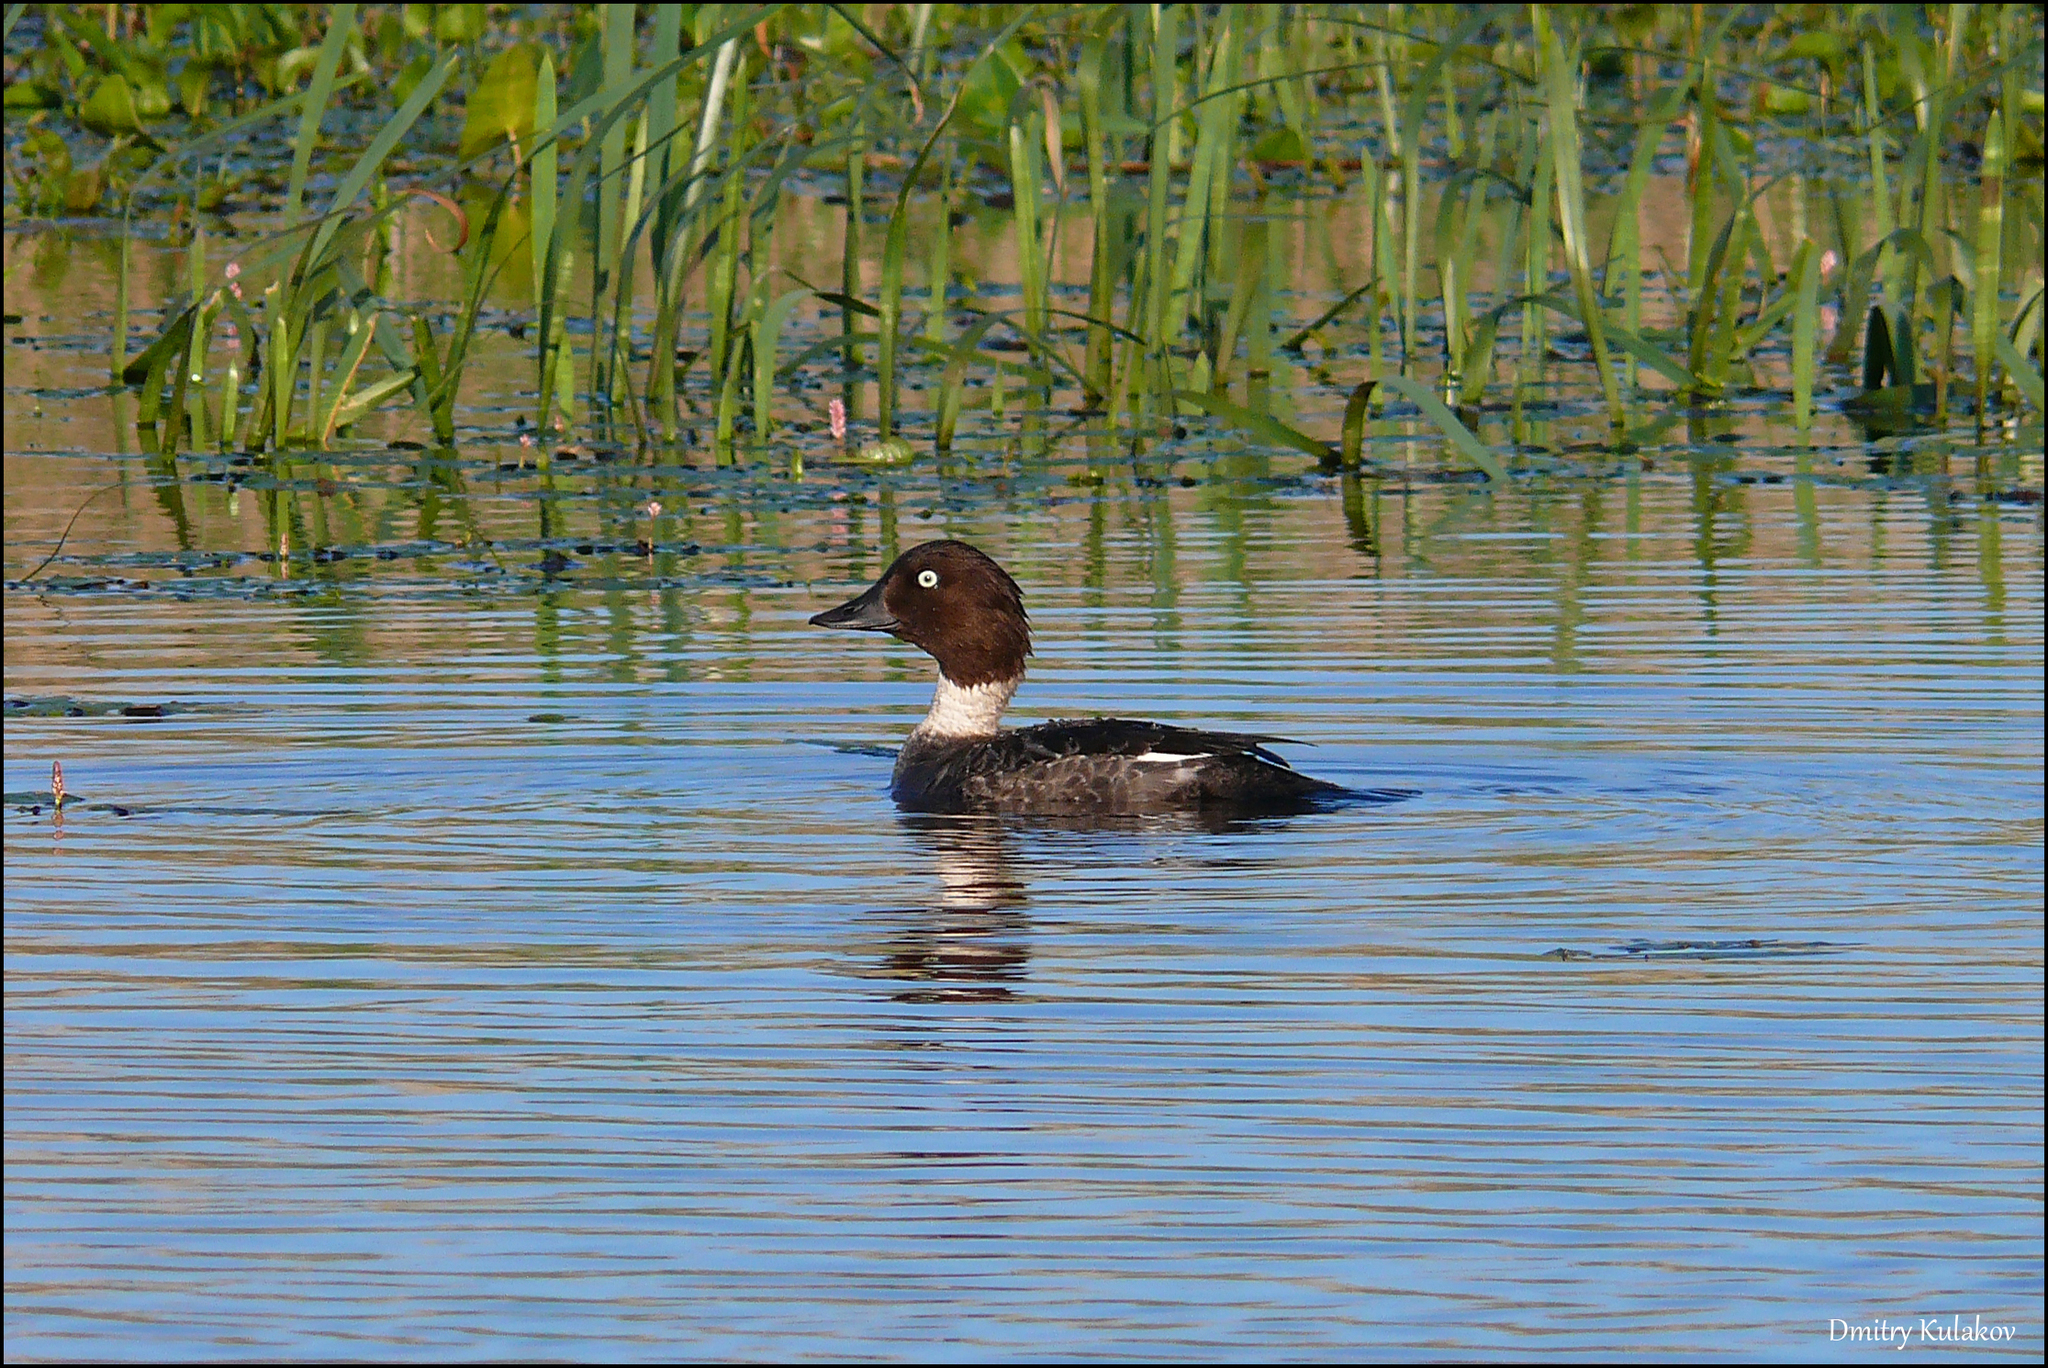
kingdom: Animalia
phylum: Chordata
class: Aves
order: Anseriformes
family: Anatidae
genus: Bucephala
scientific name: Bucephala clangula
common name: Common goldeneye
